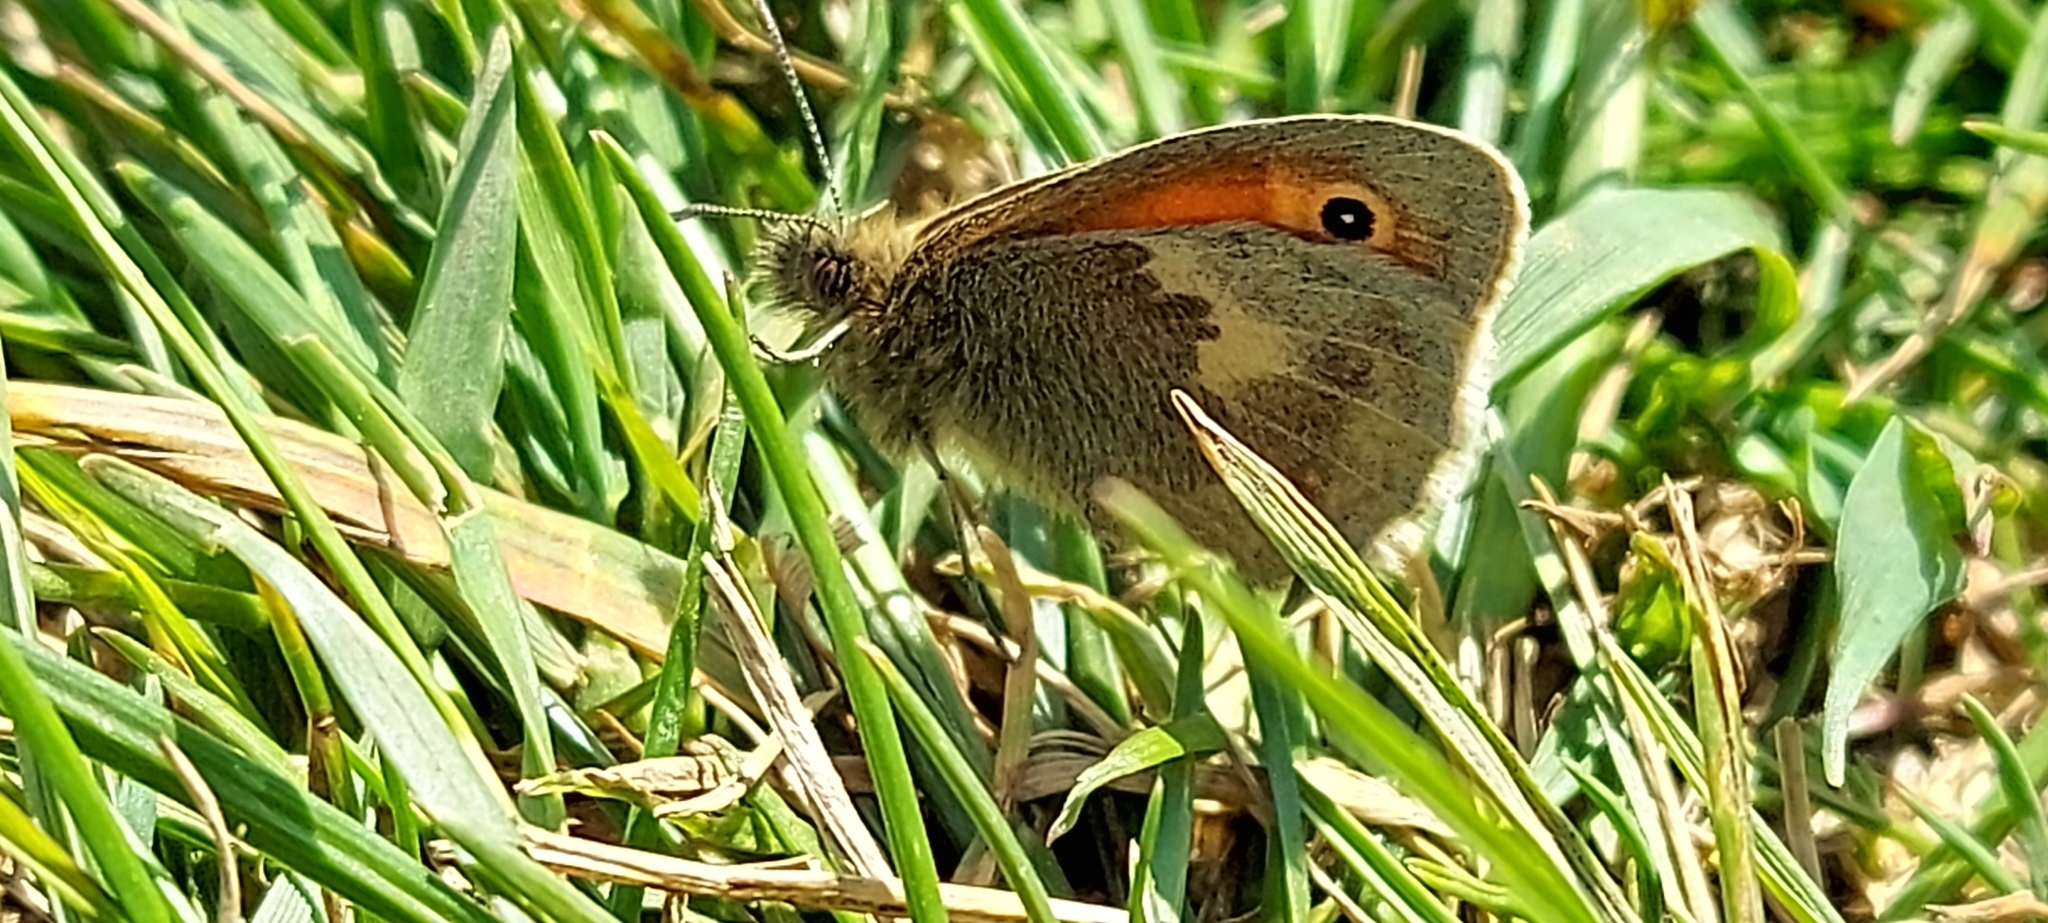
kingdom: Animalia
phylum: Arthropoda
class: Insecta
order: Lepidoptera
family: Nymphalidae
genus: Coenonympha
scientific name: Coenonympha pamphilus
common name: Small heath
